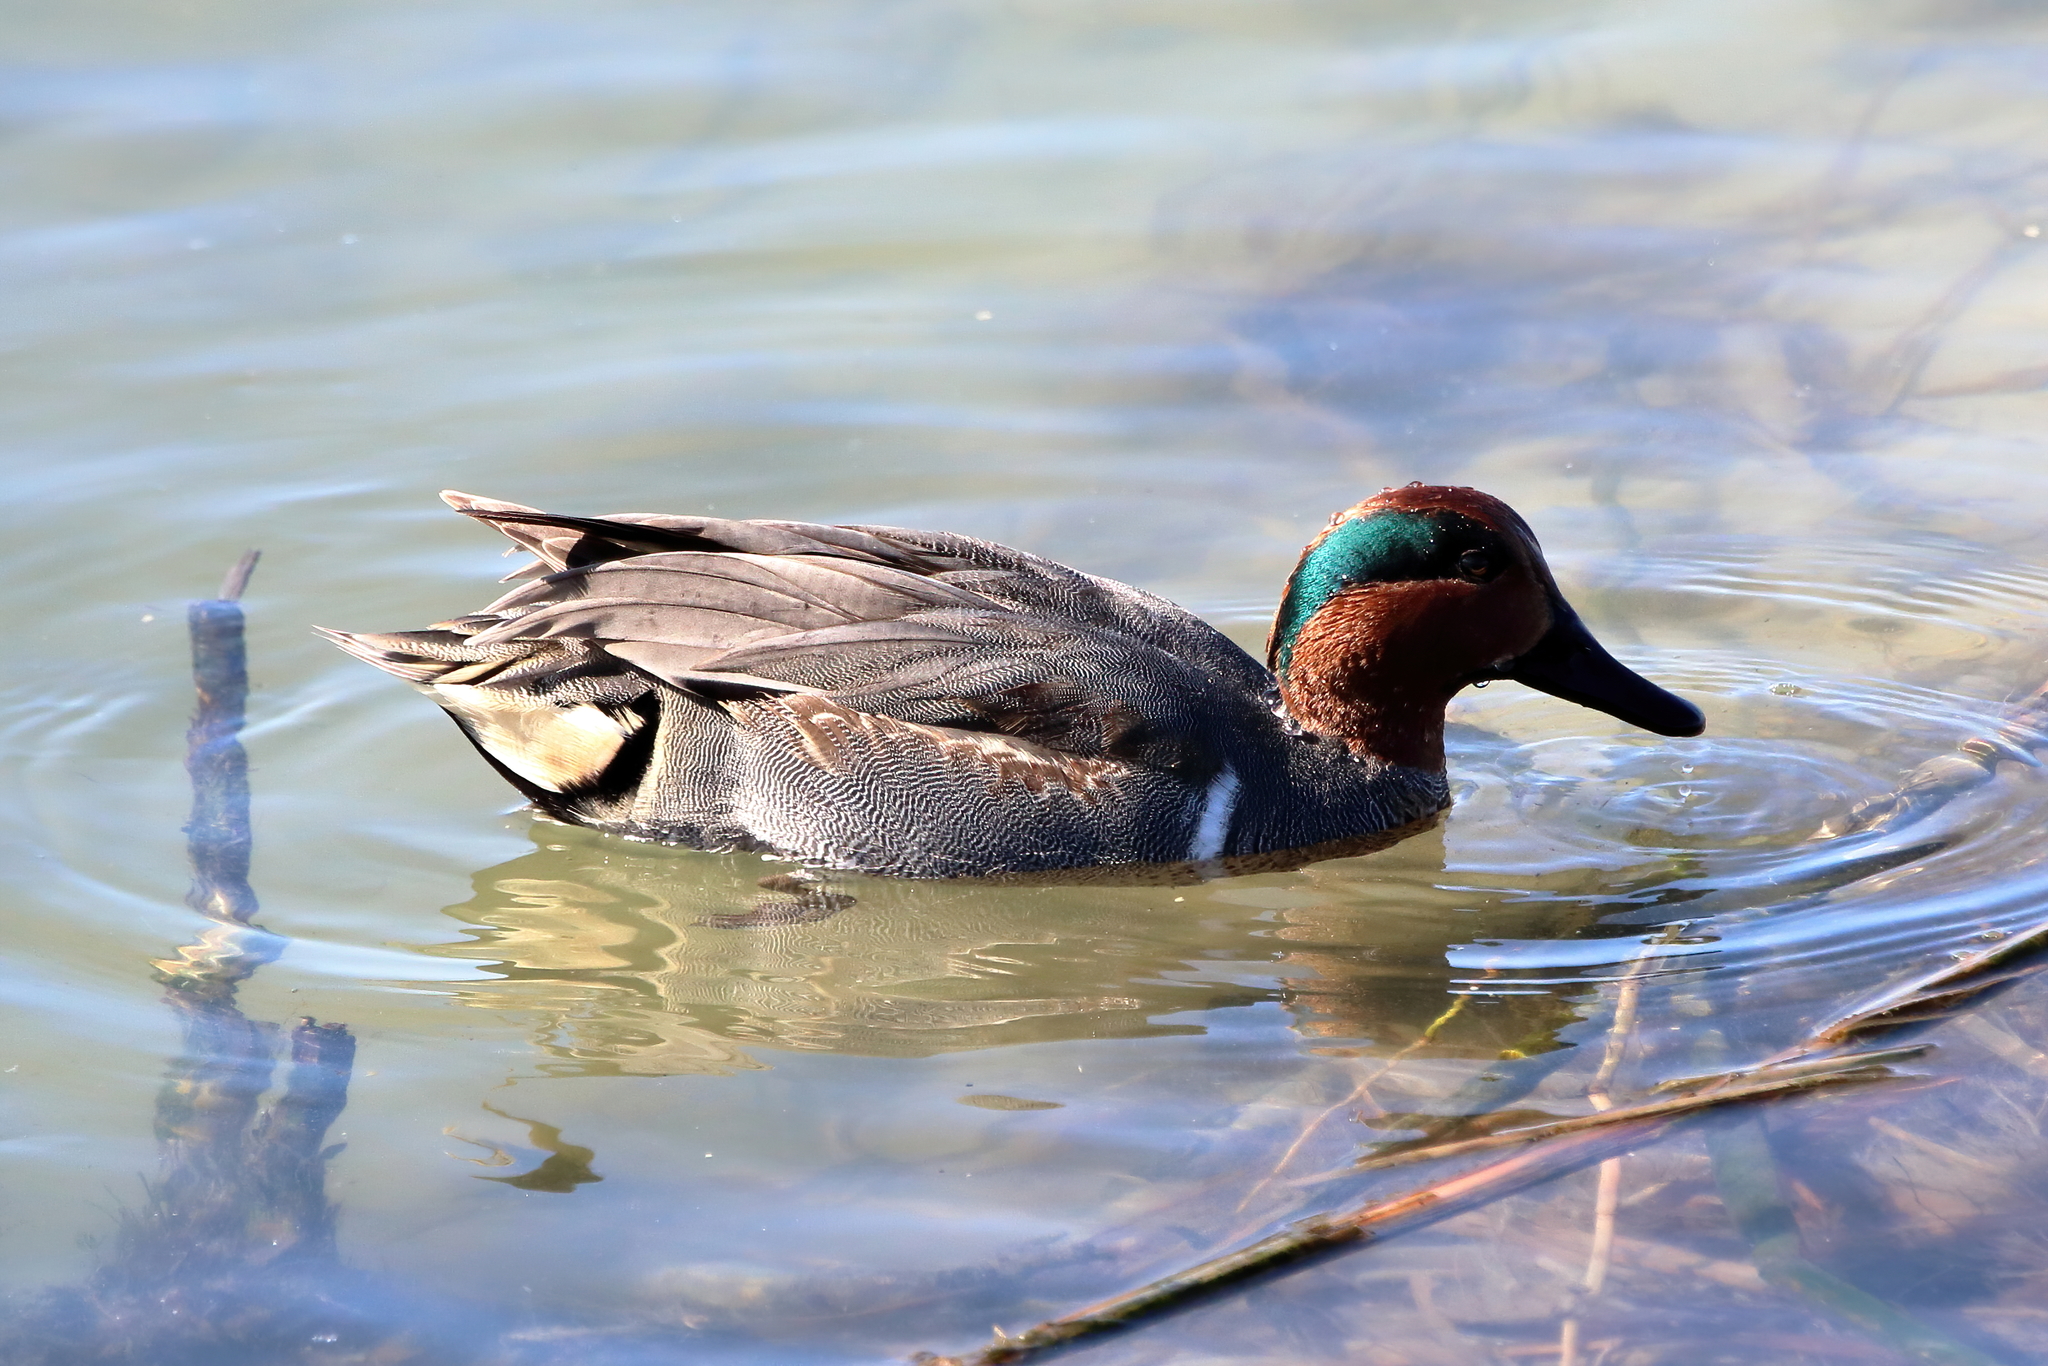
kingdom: Animalia
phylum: Chordata
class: Aves
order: Anseriformes
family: Anatidae
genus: Anas
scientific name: Anas crecca
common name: Eurasian teal
